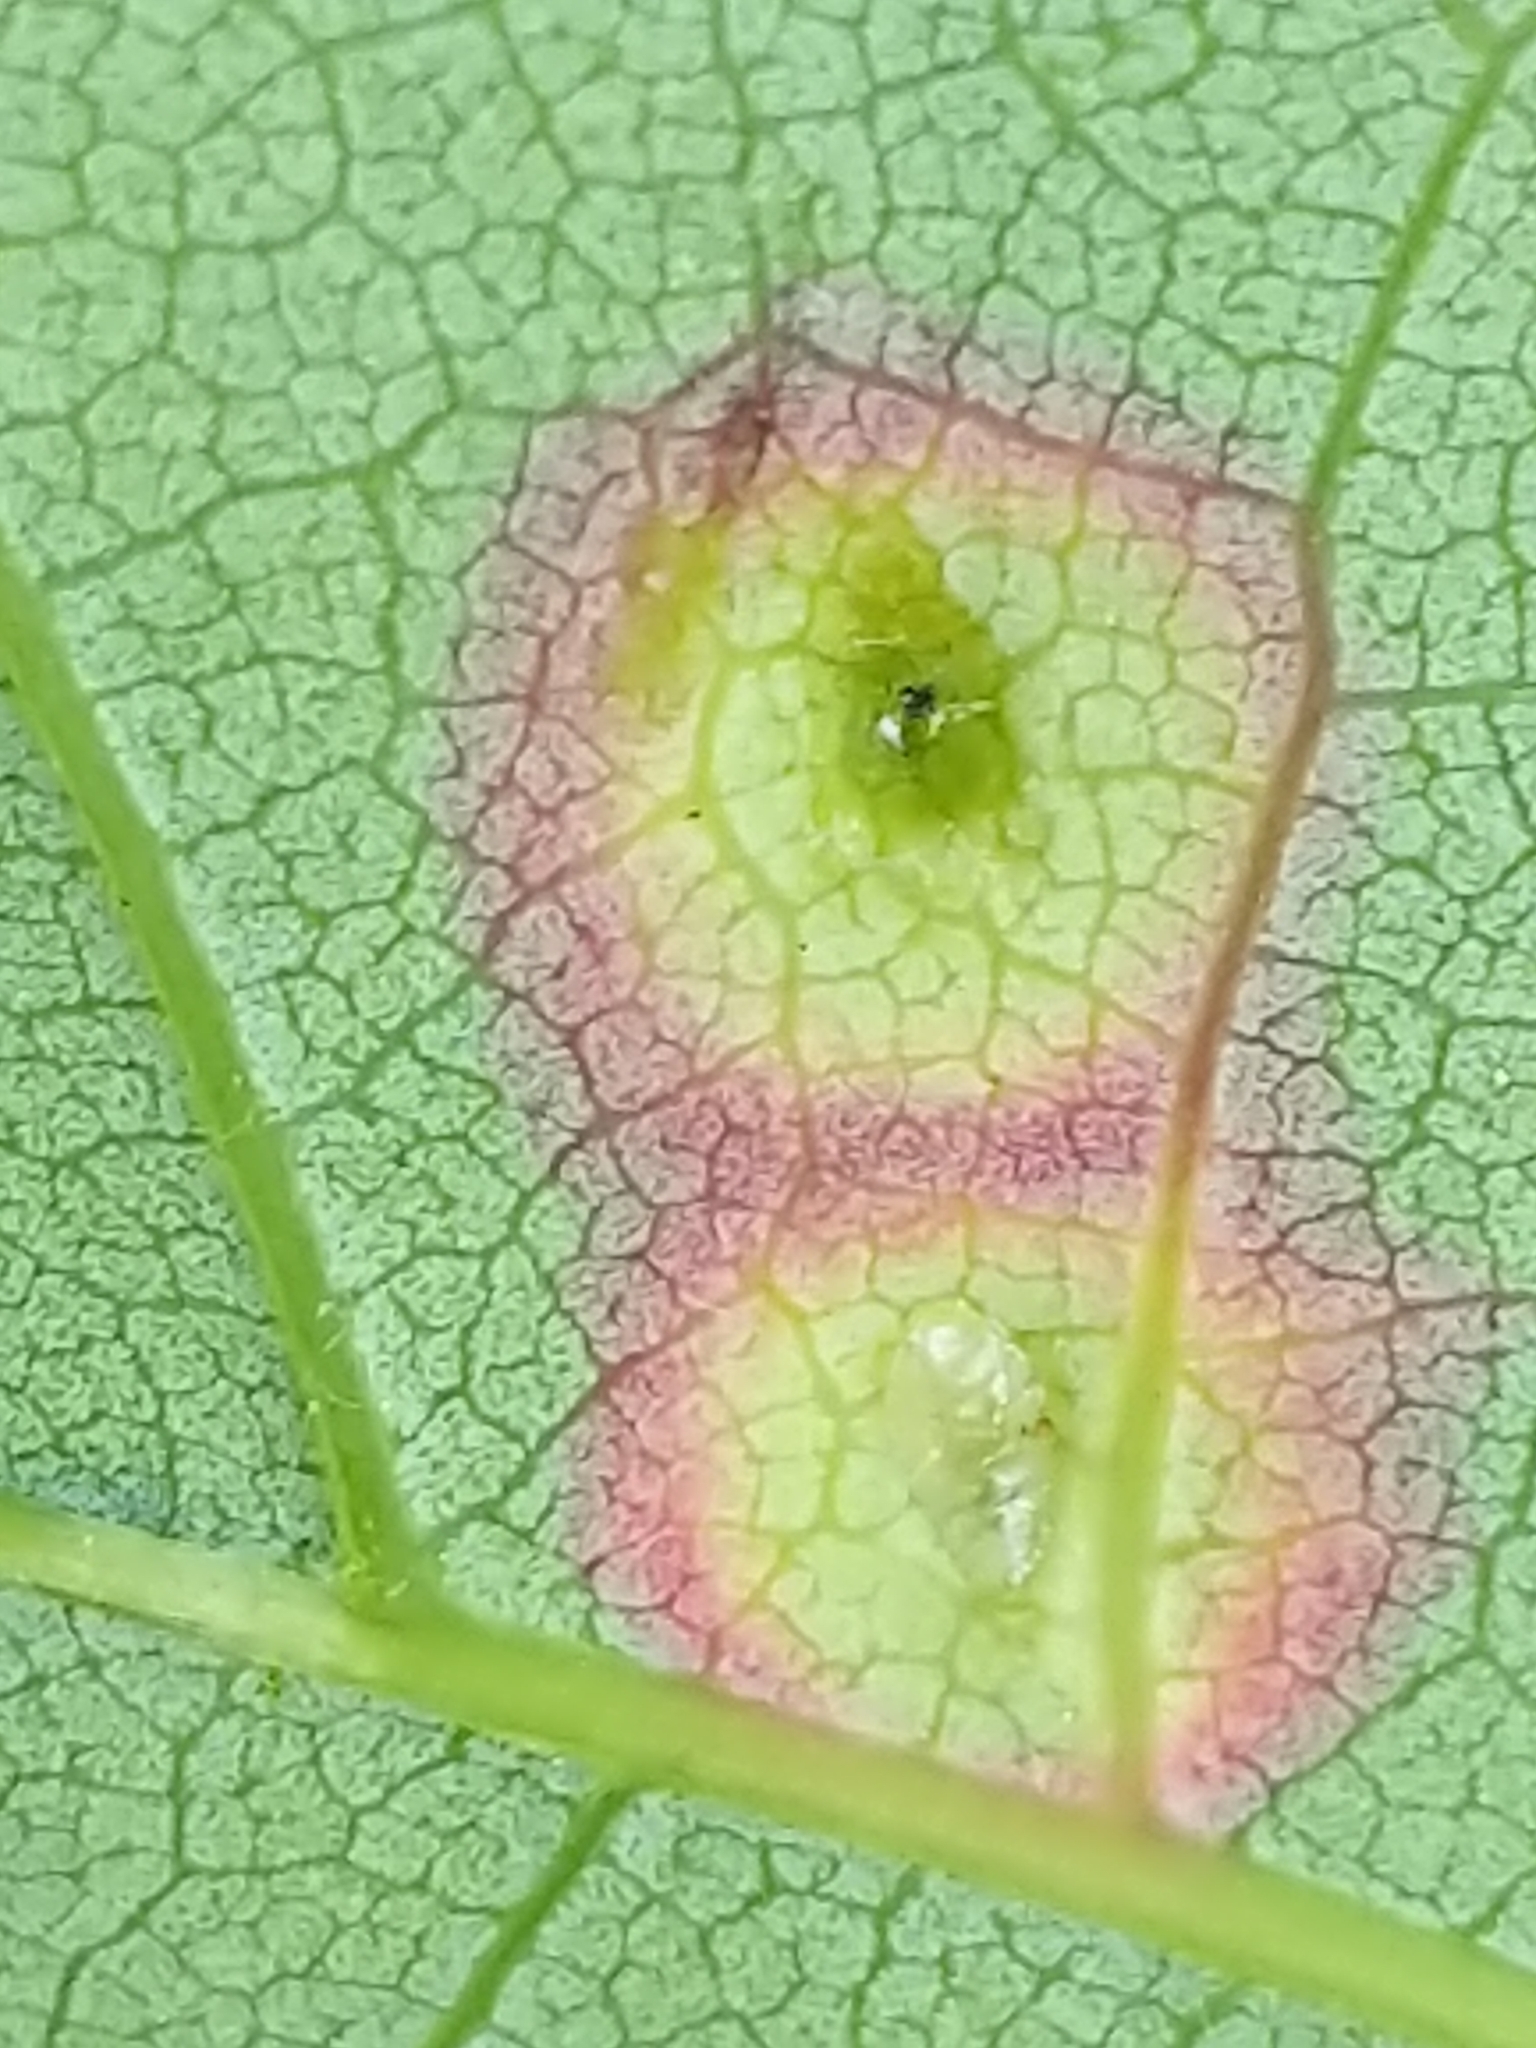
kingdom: Animalia
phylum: Arthropoda
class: Insecta
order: Diptera
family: Cecidomyiidae
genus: Acericecis
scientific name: Acericecis ocellaris
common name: Ocellate gall midge
